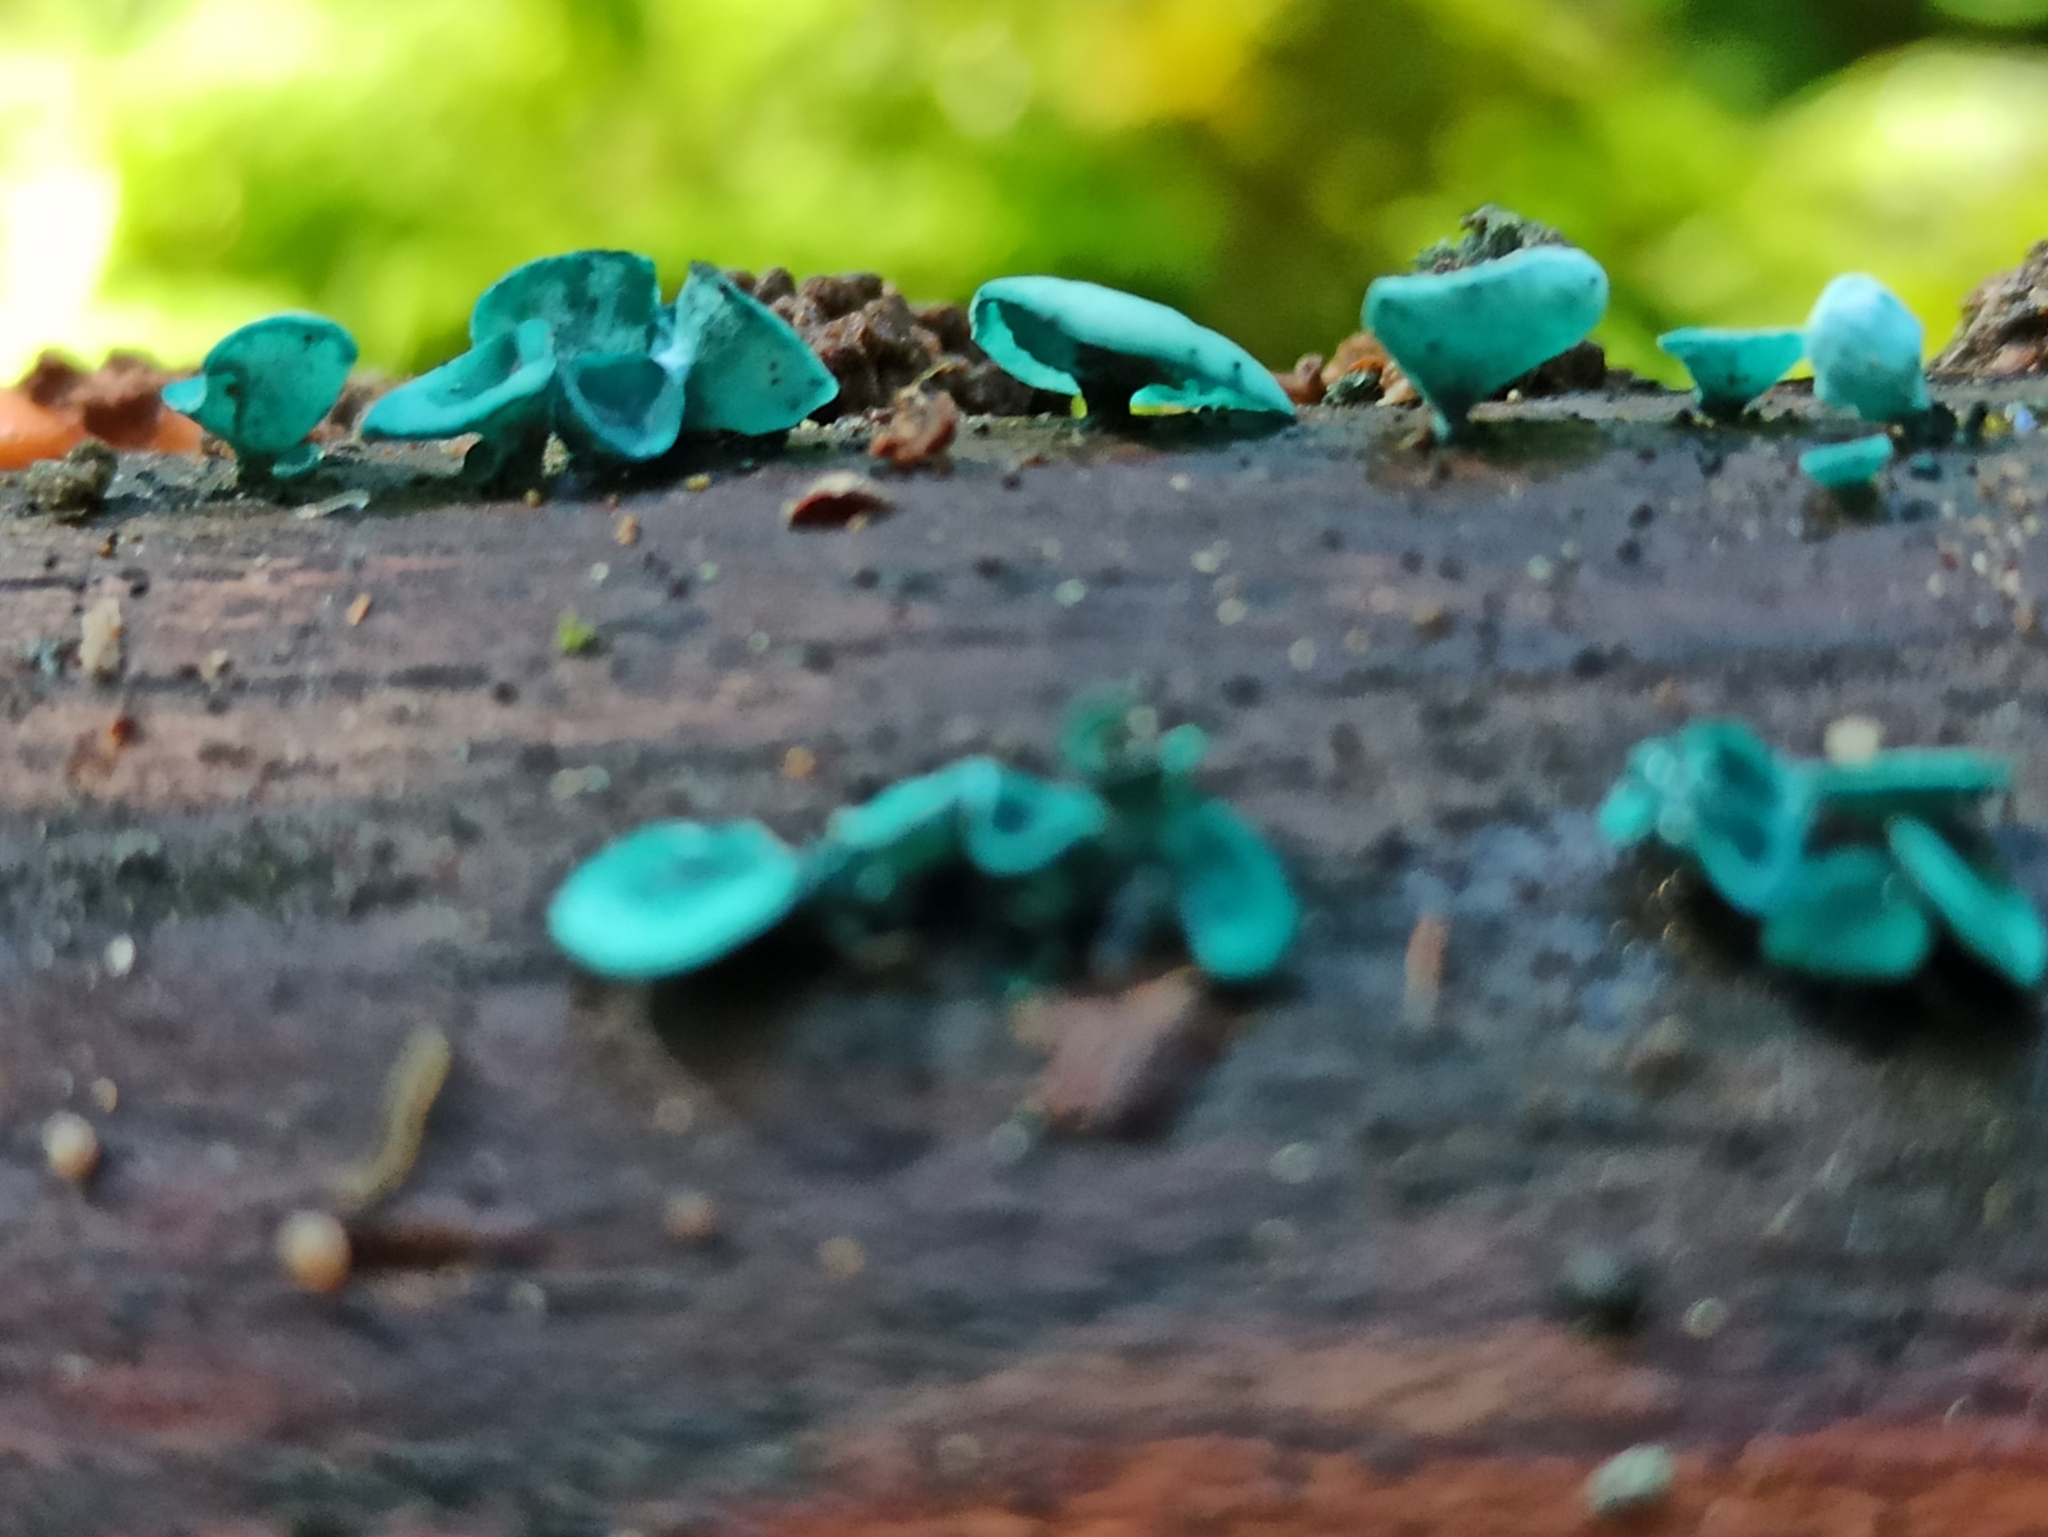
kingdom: Fungi
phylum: Ascomycota
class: Leotiomycetes
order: Helotiales
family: Chlorociboriaceae
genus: Chlorociboria
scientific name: Chlorociboria aeruginascens
